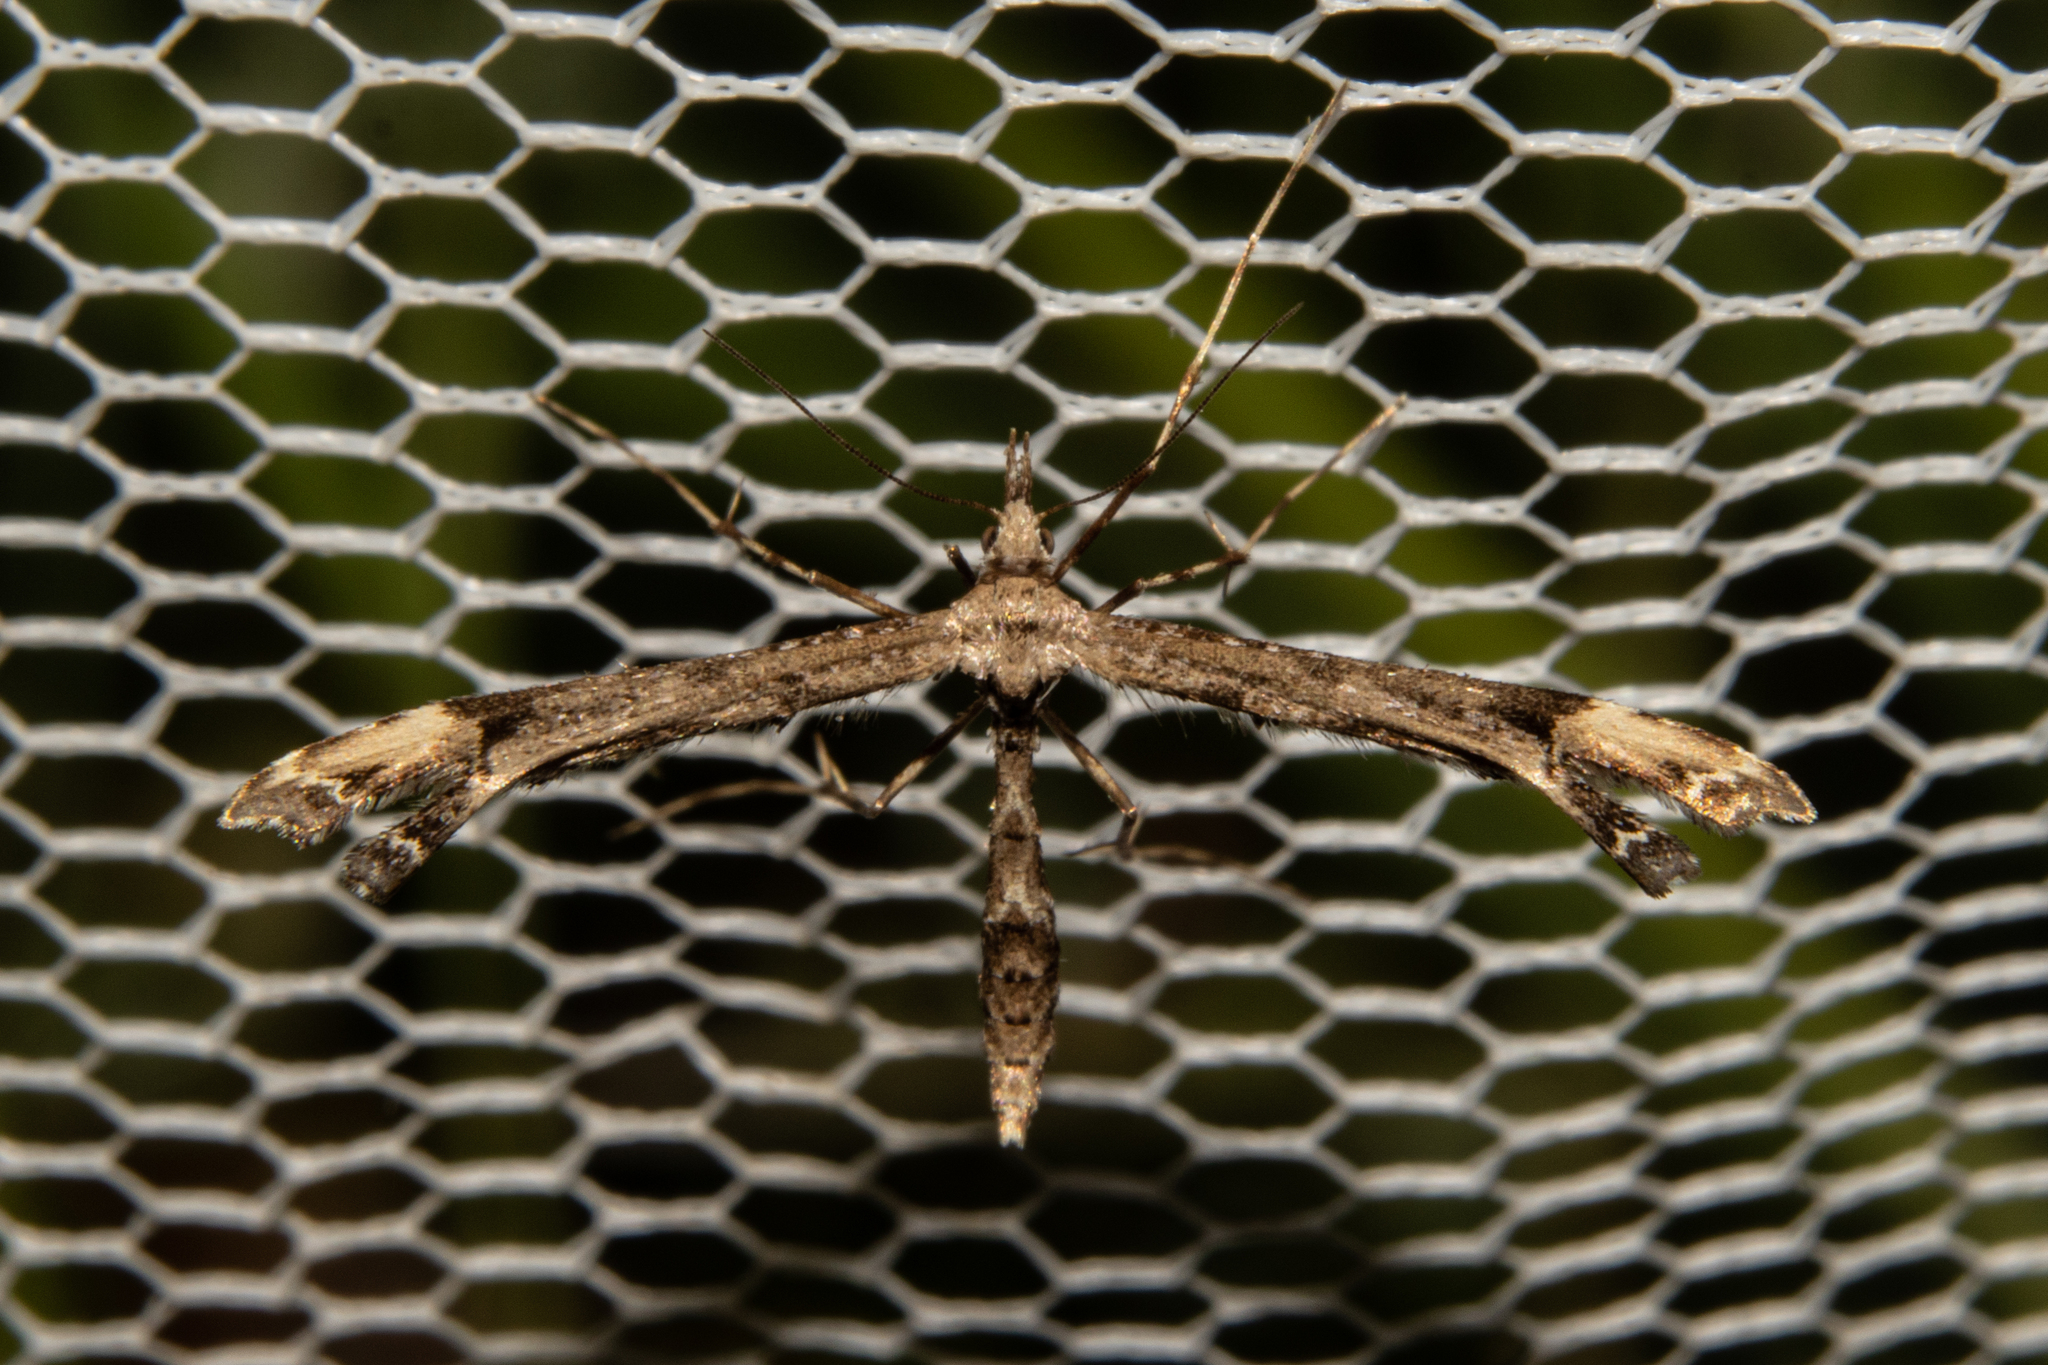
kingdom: Animalia
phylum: Arthropoda
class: Insecta
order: Lepidoptera
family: Pterophoridae
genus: Amblyptilia
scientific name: Amblyptilia repletalis
